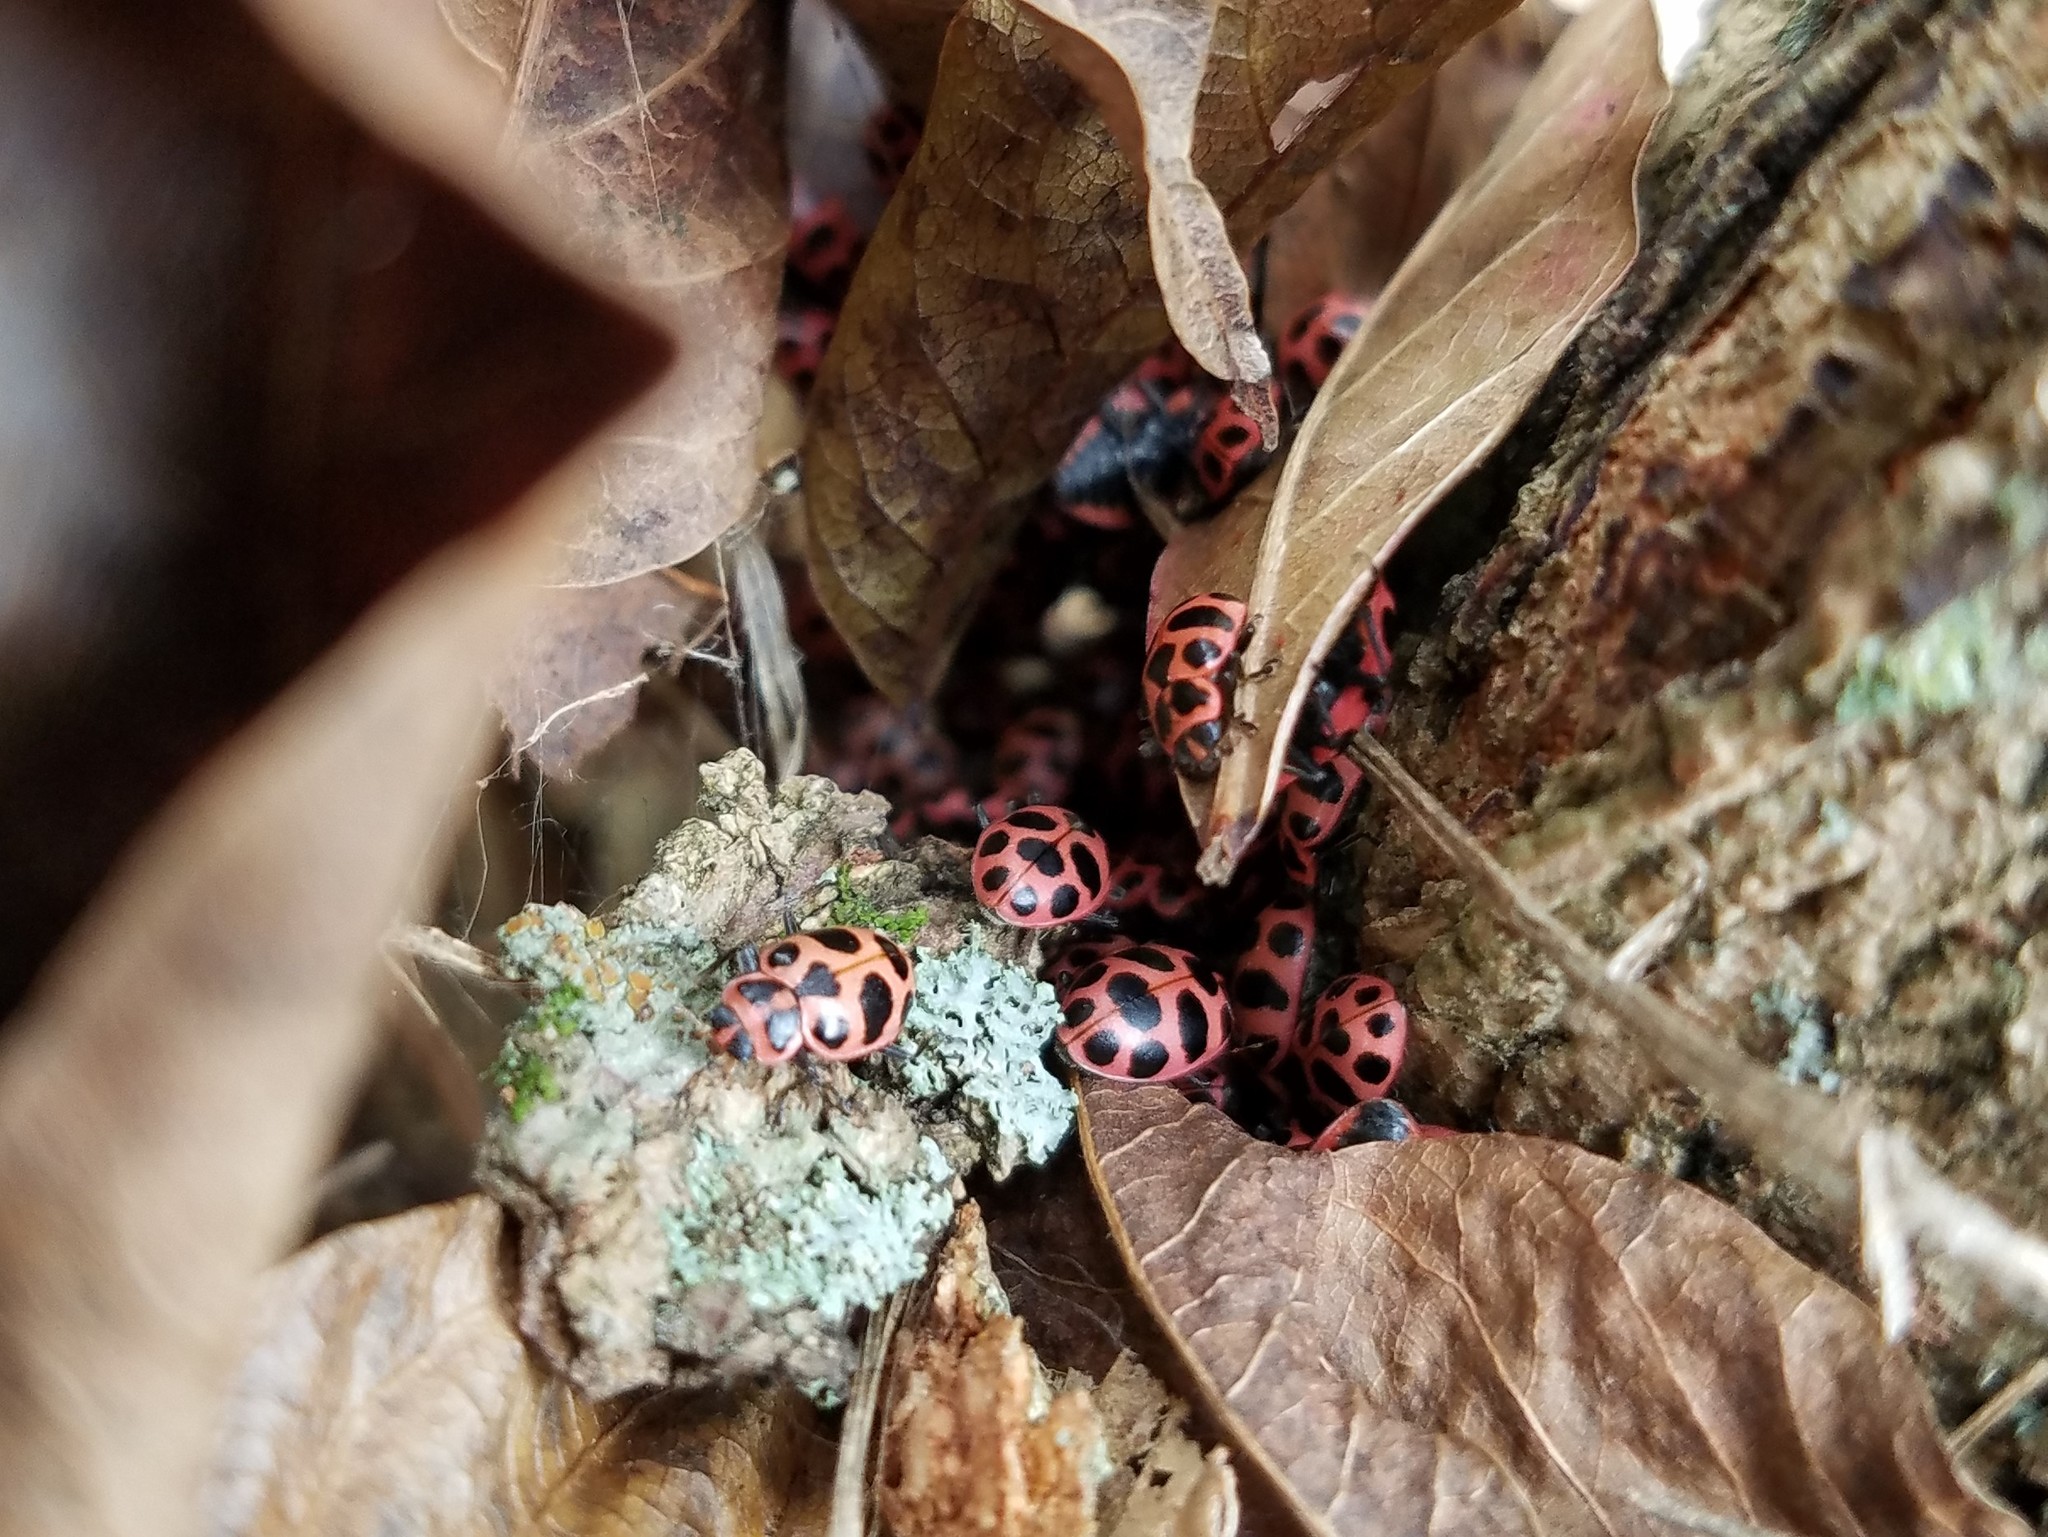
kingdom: Animalia
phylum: Arthropoda
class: Insecta
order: Coleoptera
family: Coccinellidae
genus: Coleomegilla
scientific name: Coleomegilla maculata
